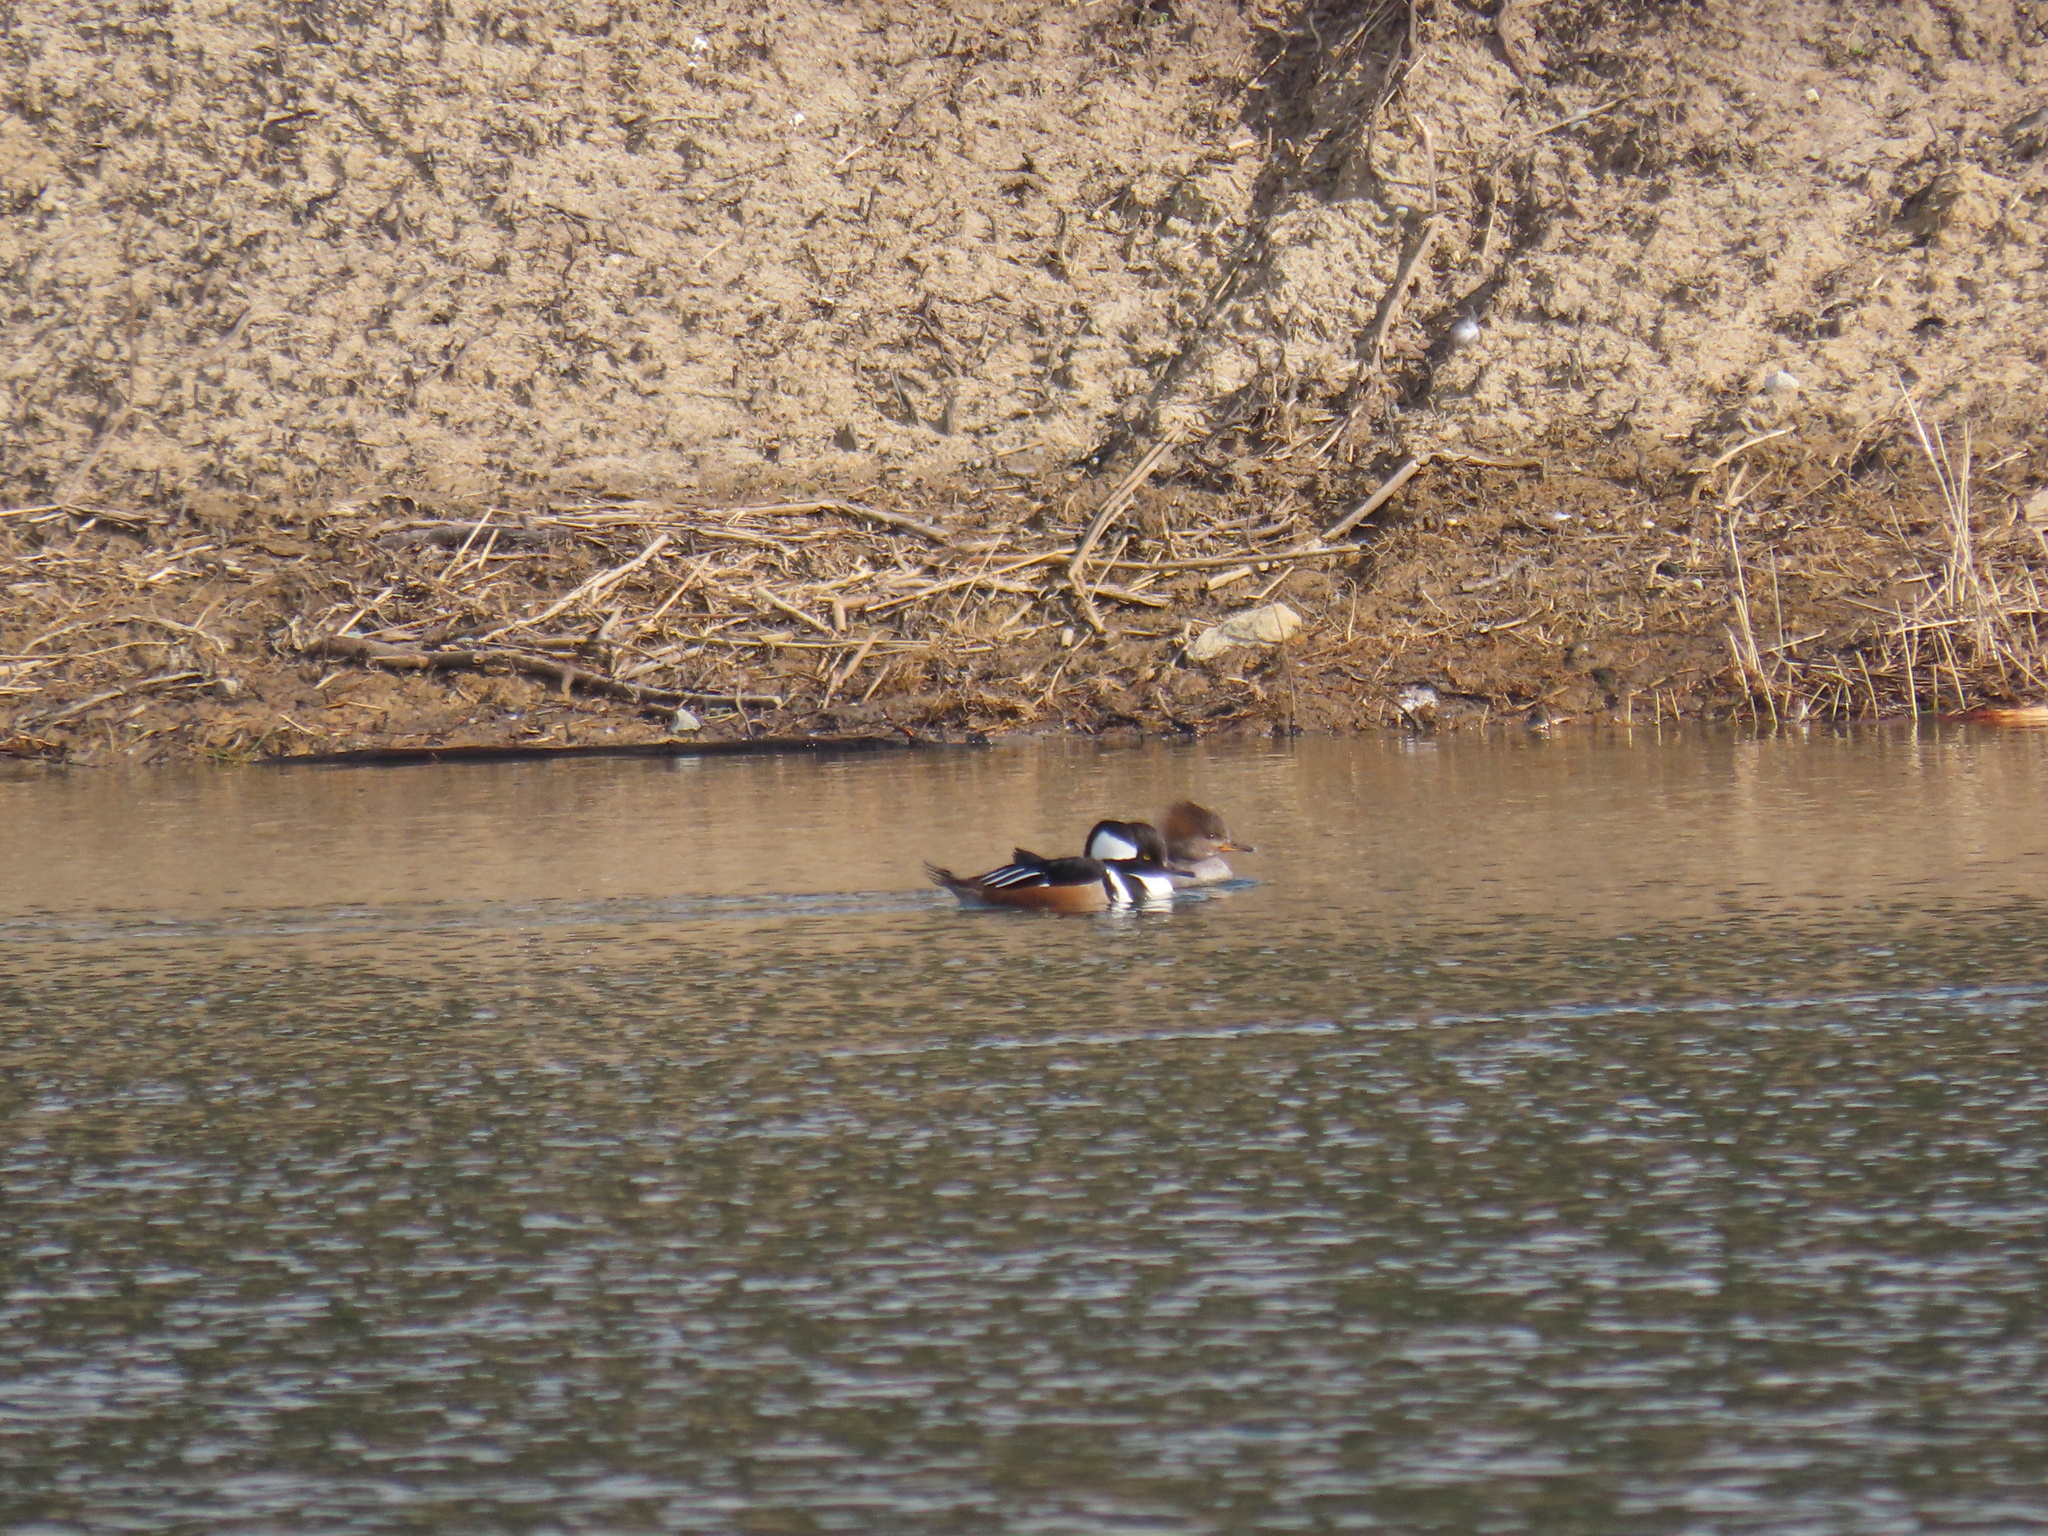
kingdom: Animalia
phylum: Chordata
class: Aves
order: Anseriformes
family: Anatidae
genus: Lophodytes
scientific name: Lophodytes cucullatus
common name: Hooded merganser
